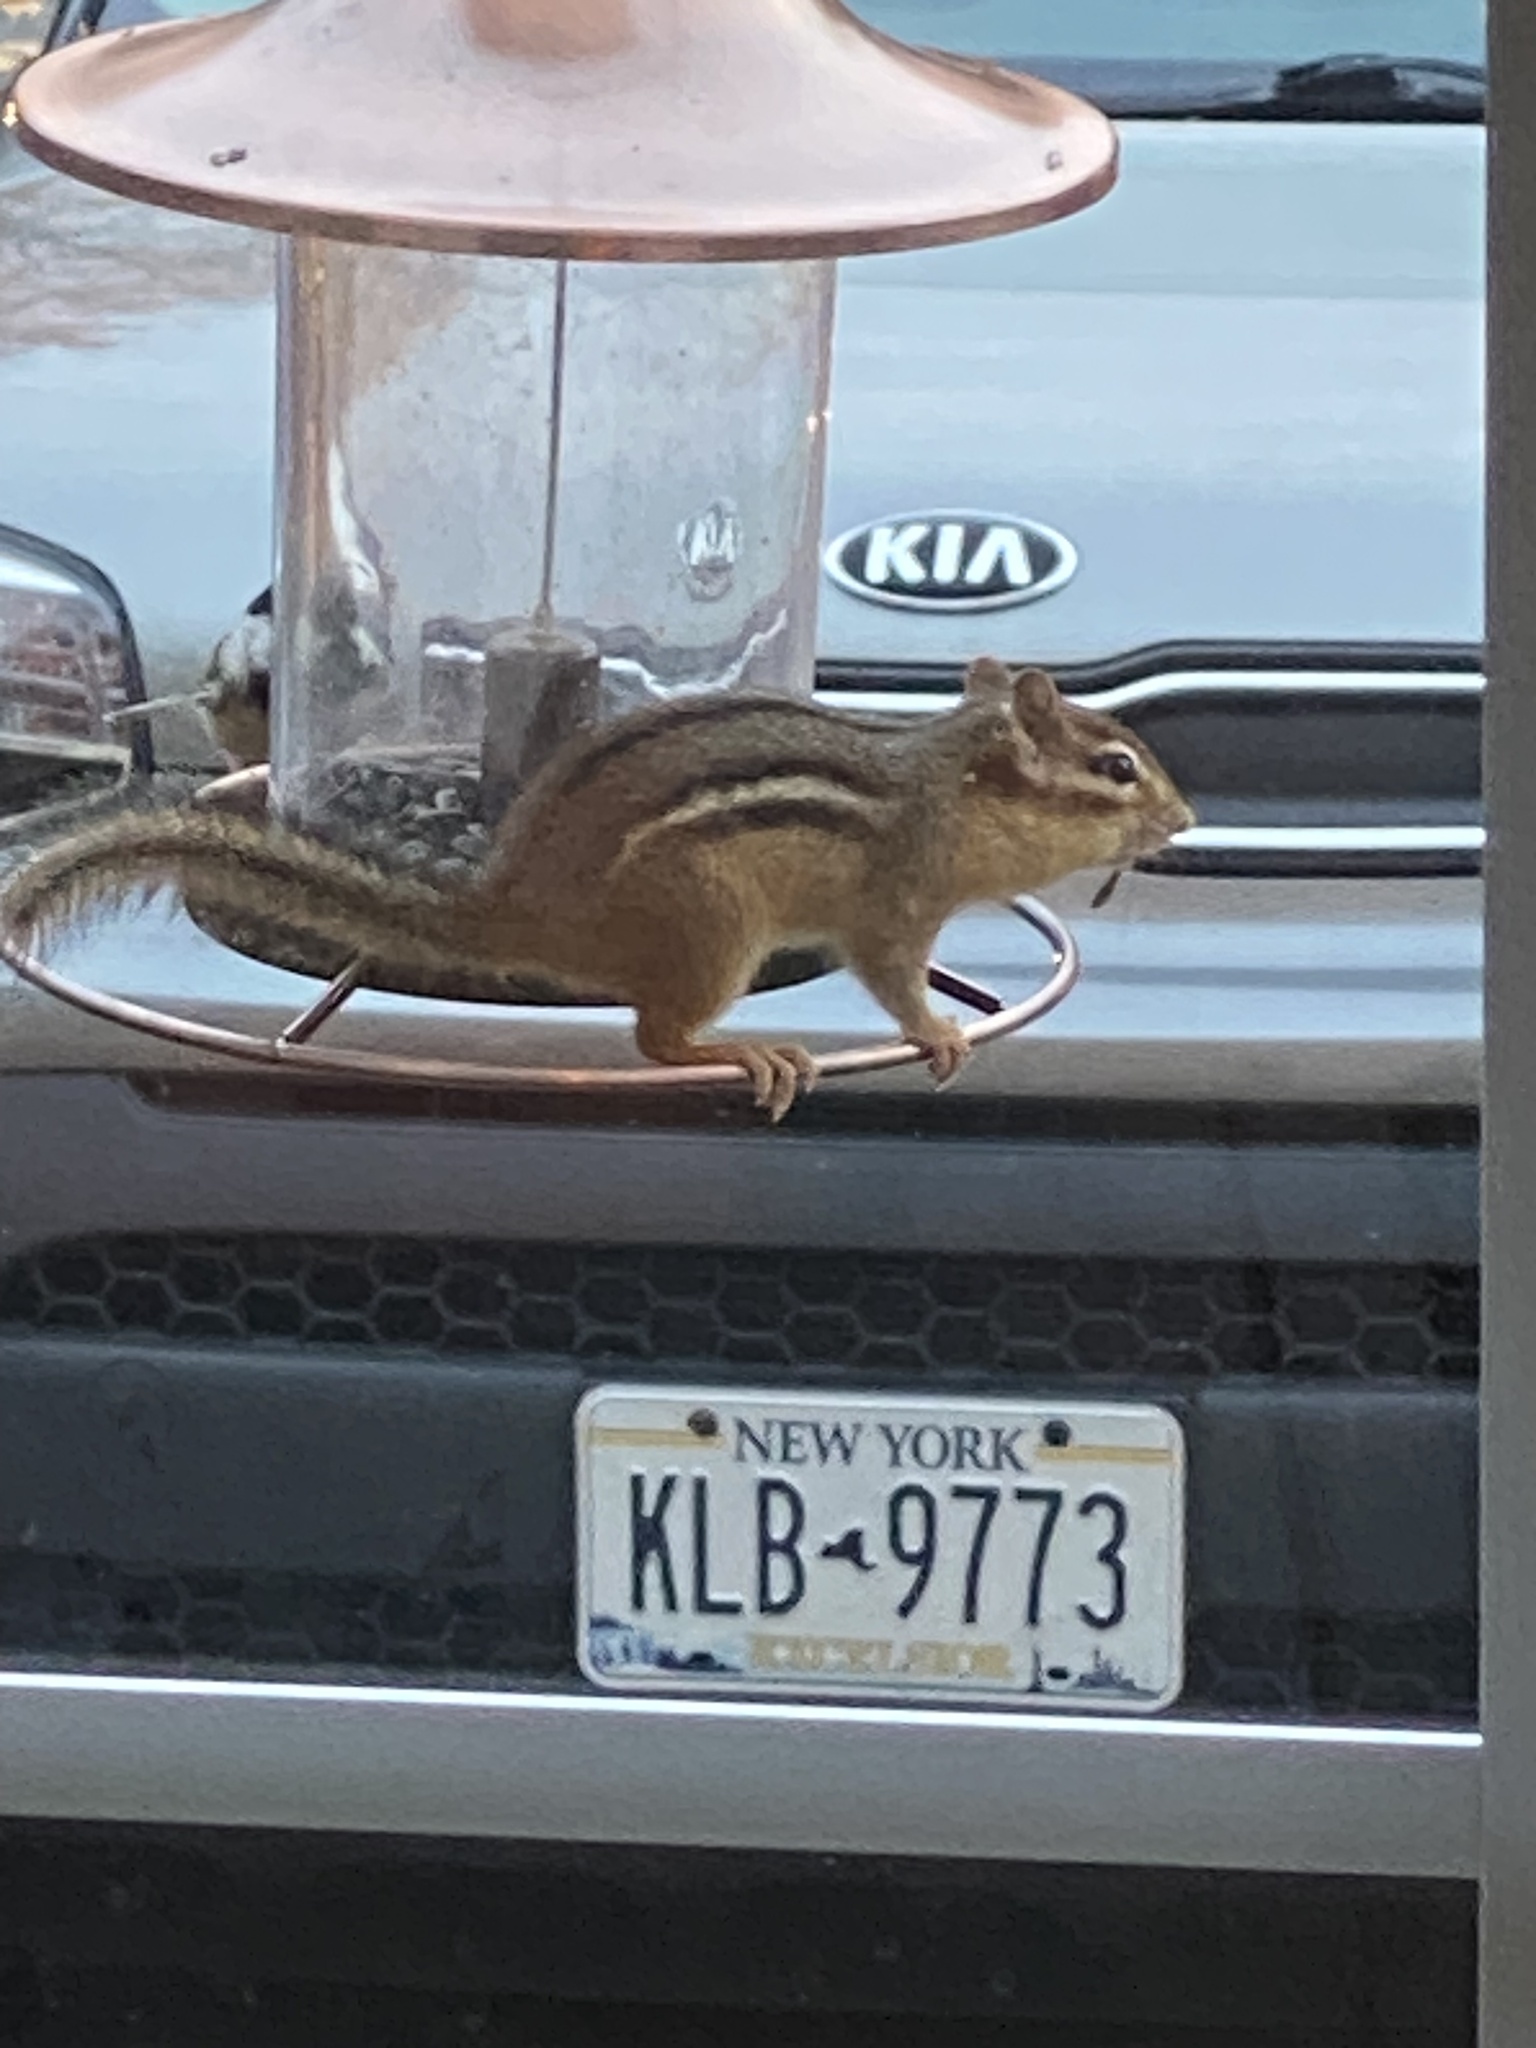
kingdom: Animalia
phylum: Chordata
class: Mammalia
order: Rodentia
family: Sciuridae
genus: Tamias
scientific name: Tamias striatus
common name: Eastern chipmunk
